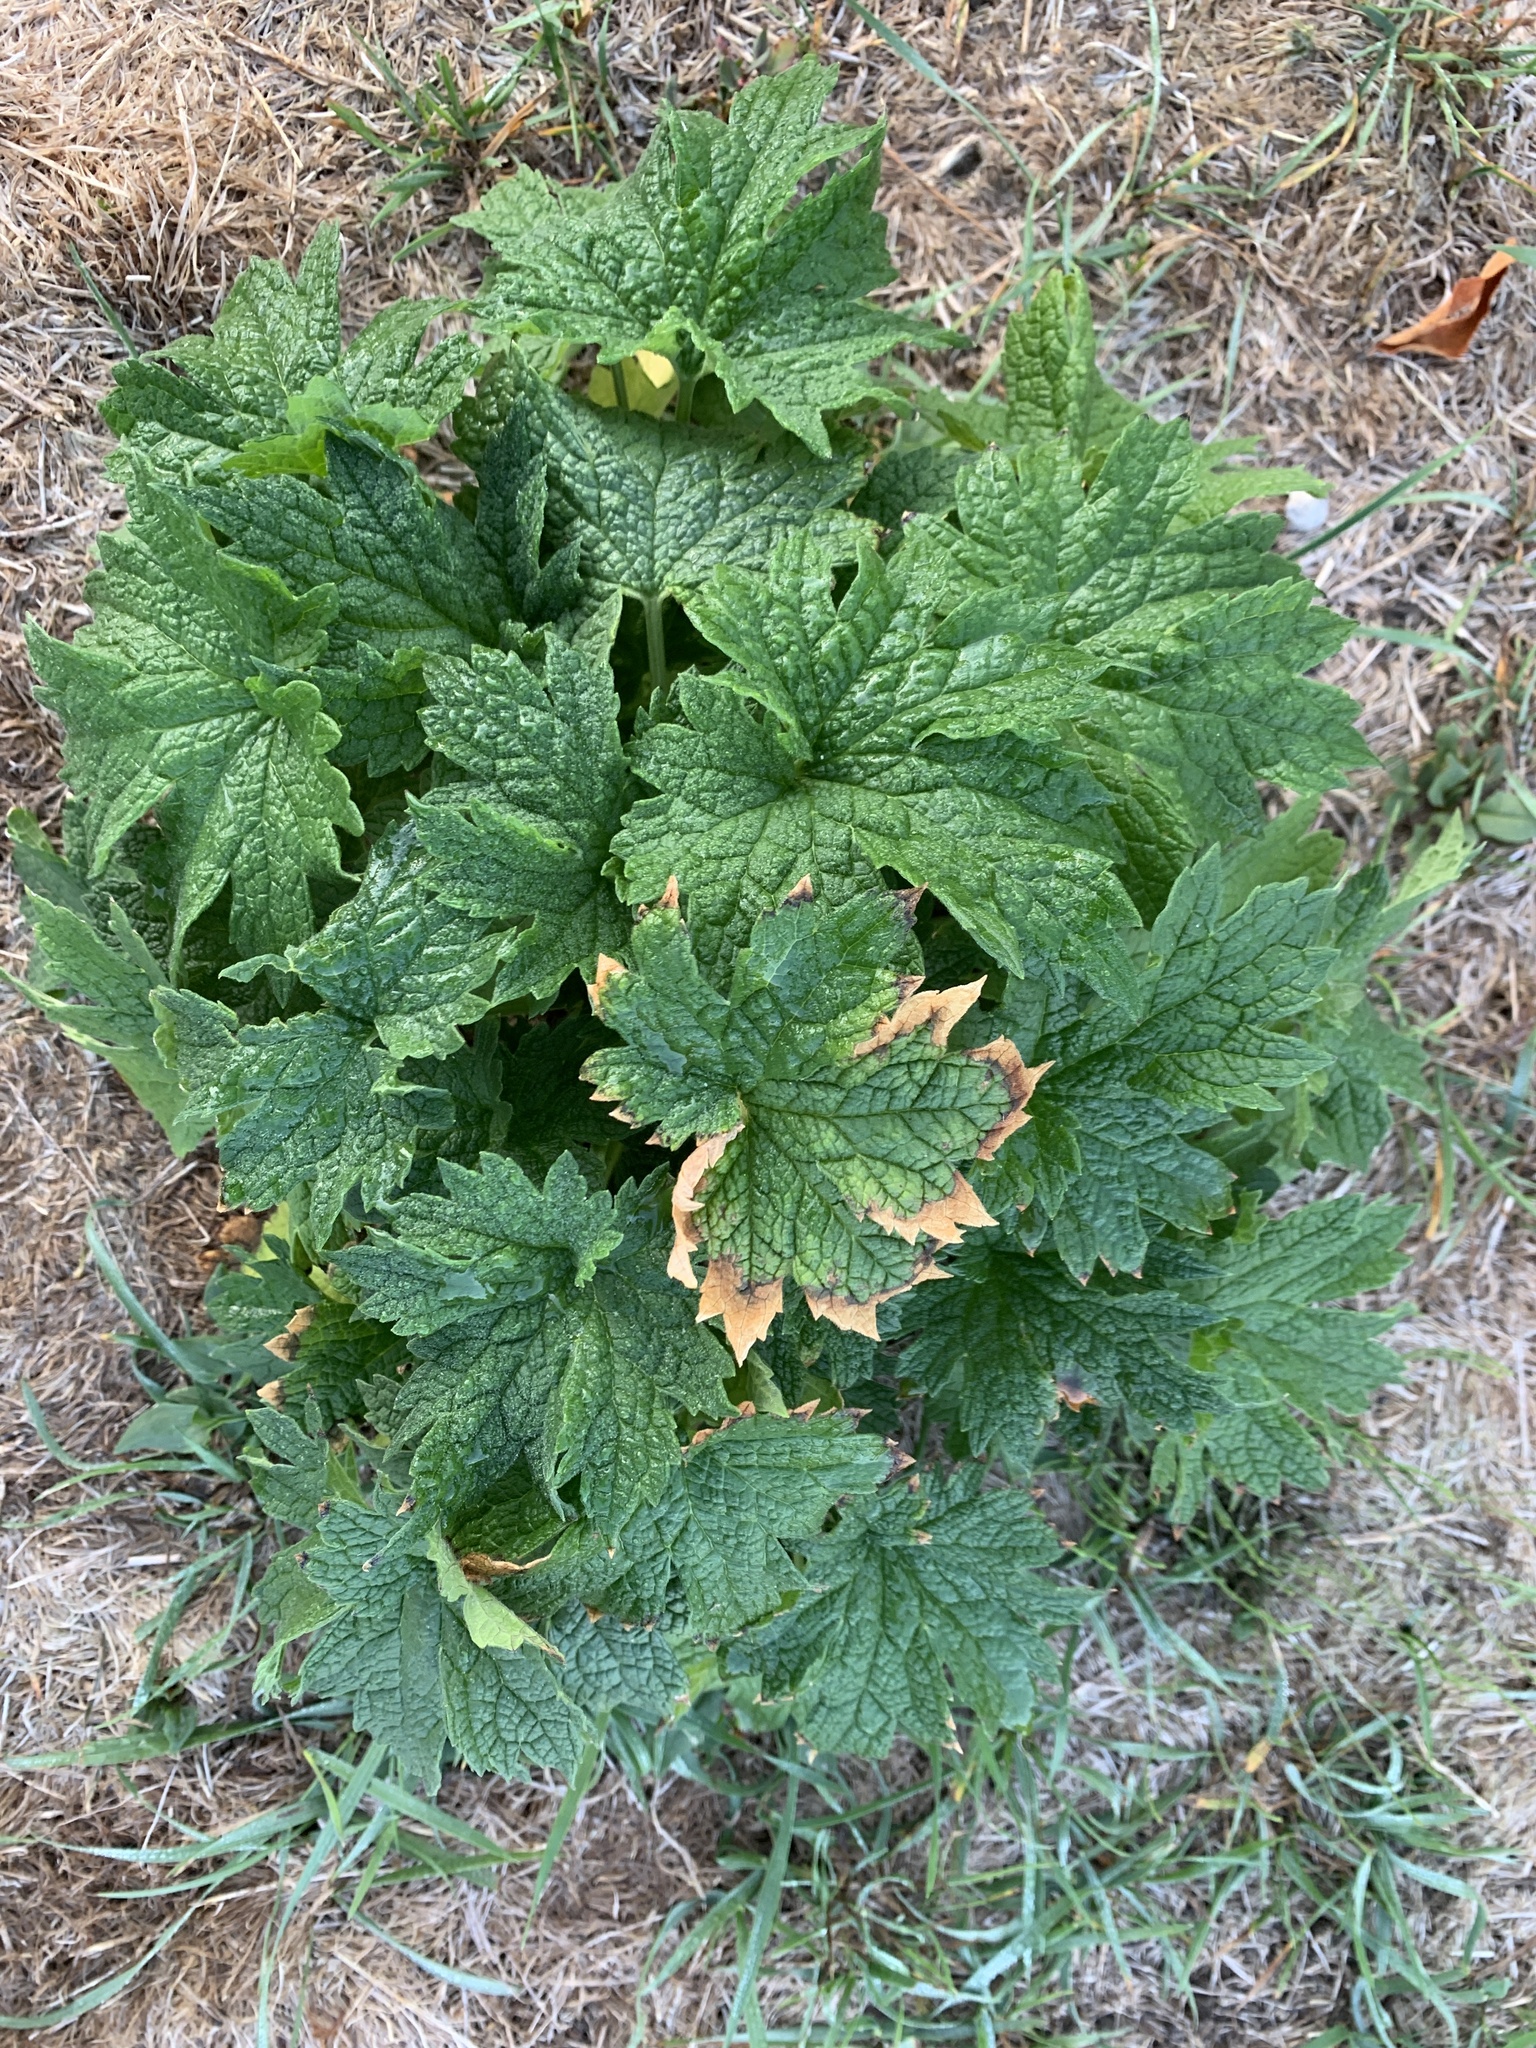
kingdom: Plantae
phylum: Tracheophyta
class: Magnoliopsida
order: Lamiales
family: Lamiaceae
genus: Leonurus
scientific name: Leonurus cardiaca
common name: Motherwort
